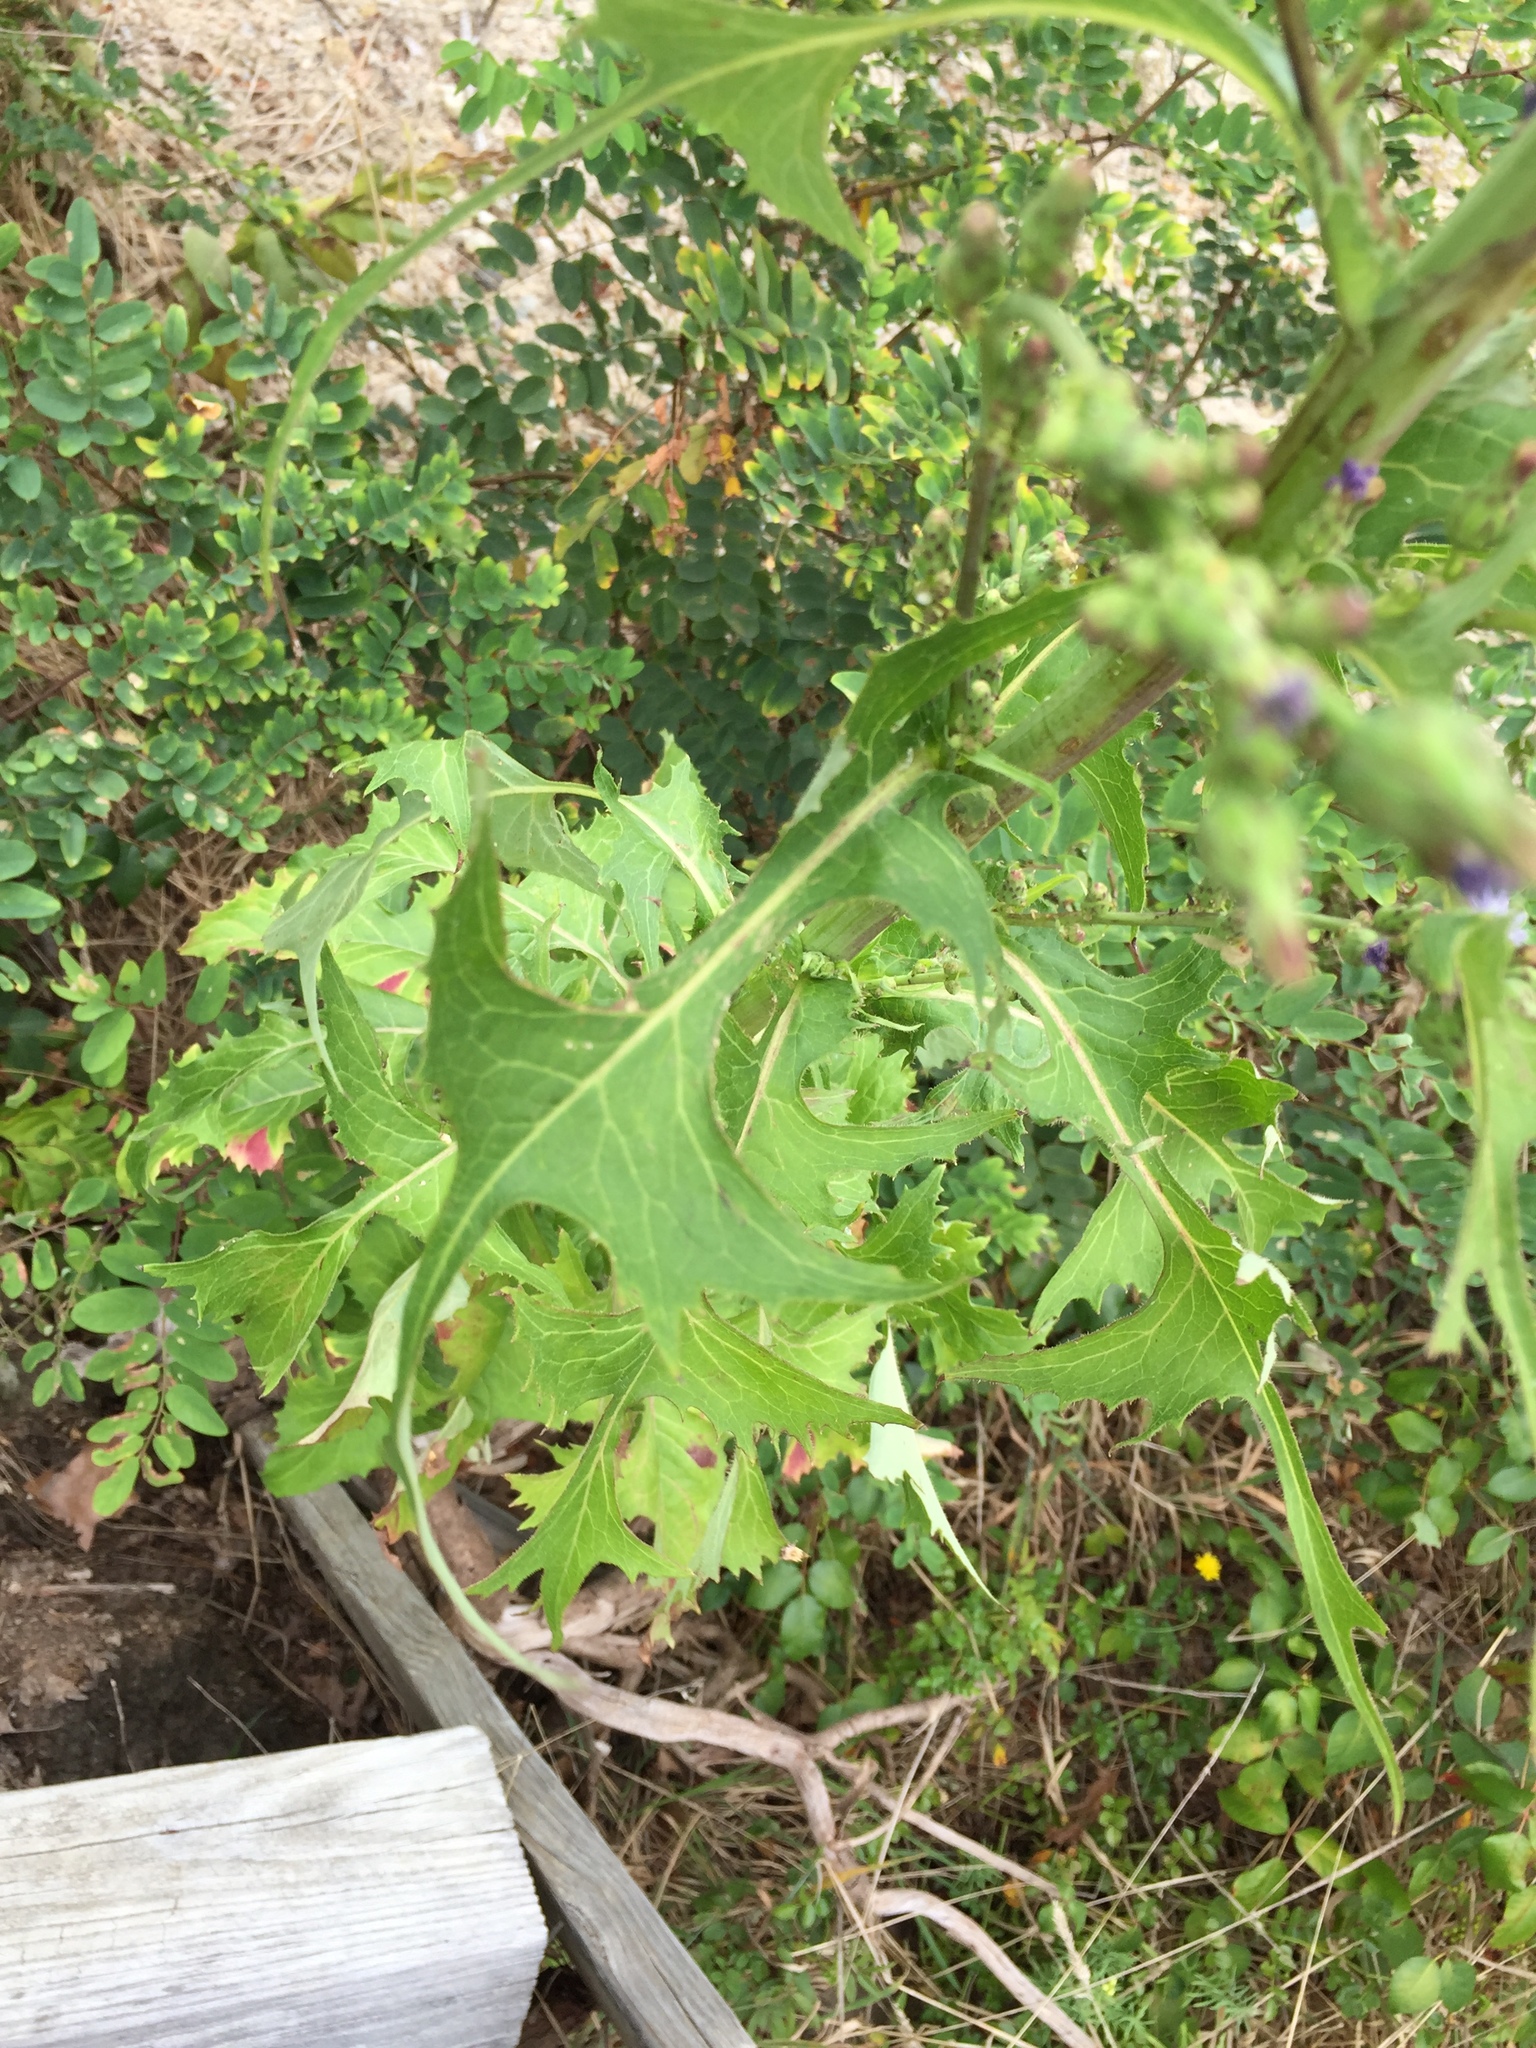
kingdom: Plantae
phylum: Tracheophyta
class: Magnoliopsida
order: Asterales
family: Asteraceae
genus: Lactuca
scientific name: Lactuca biennis
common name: Blue wood lettuce
